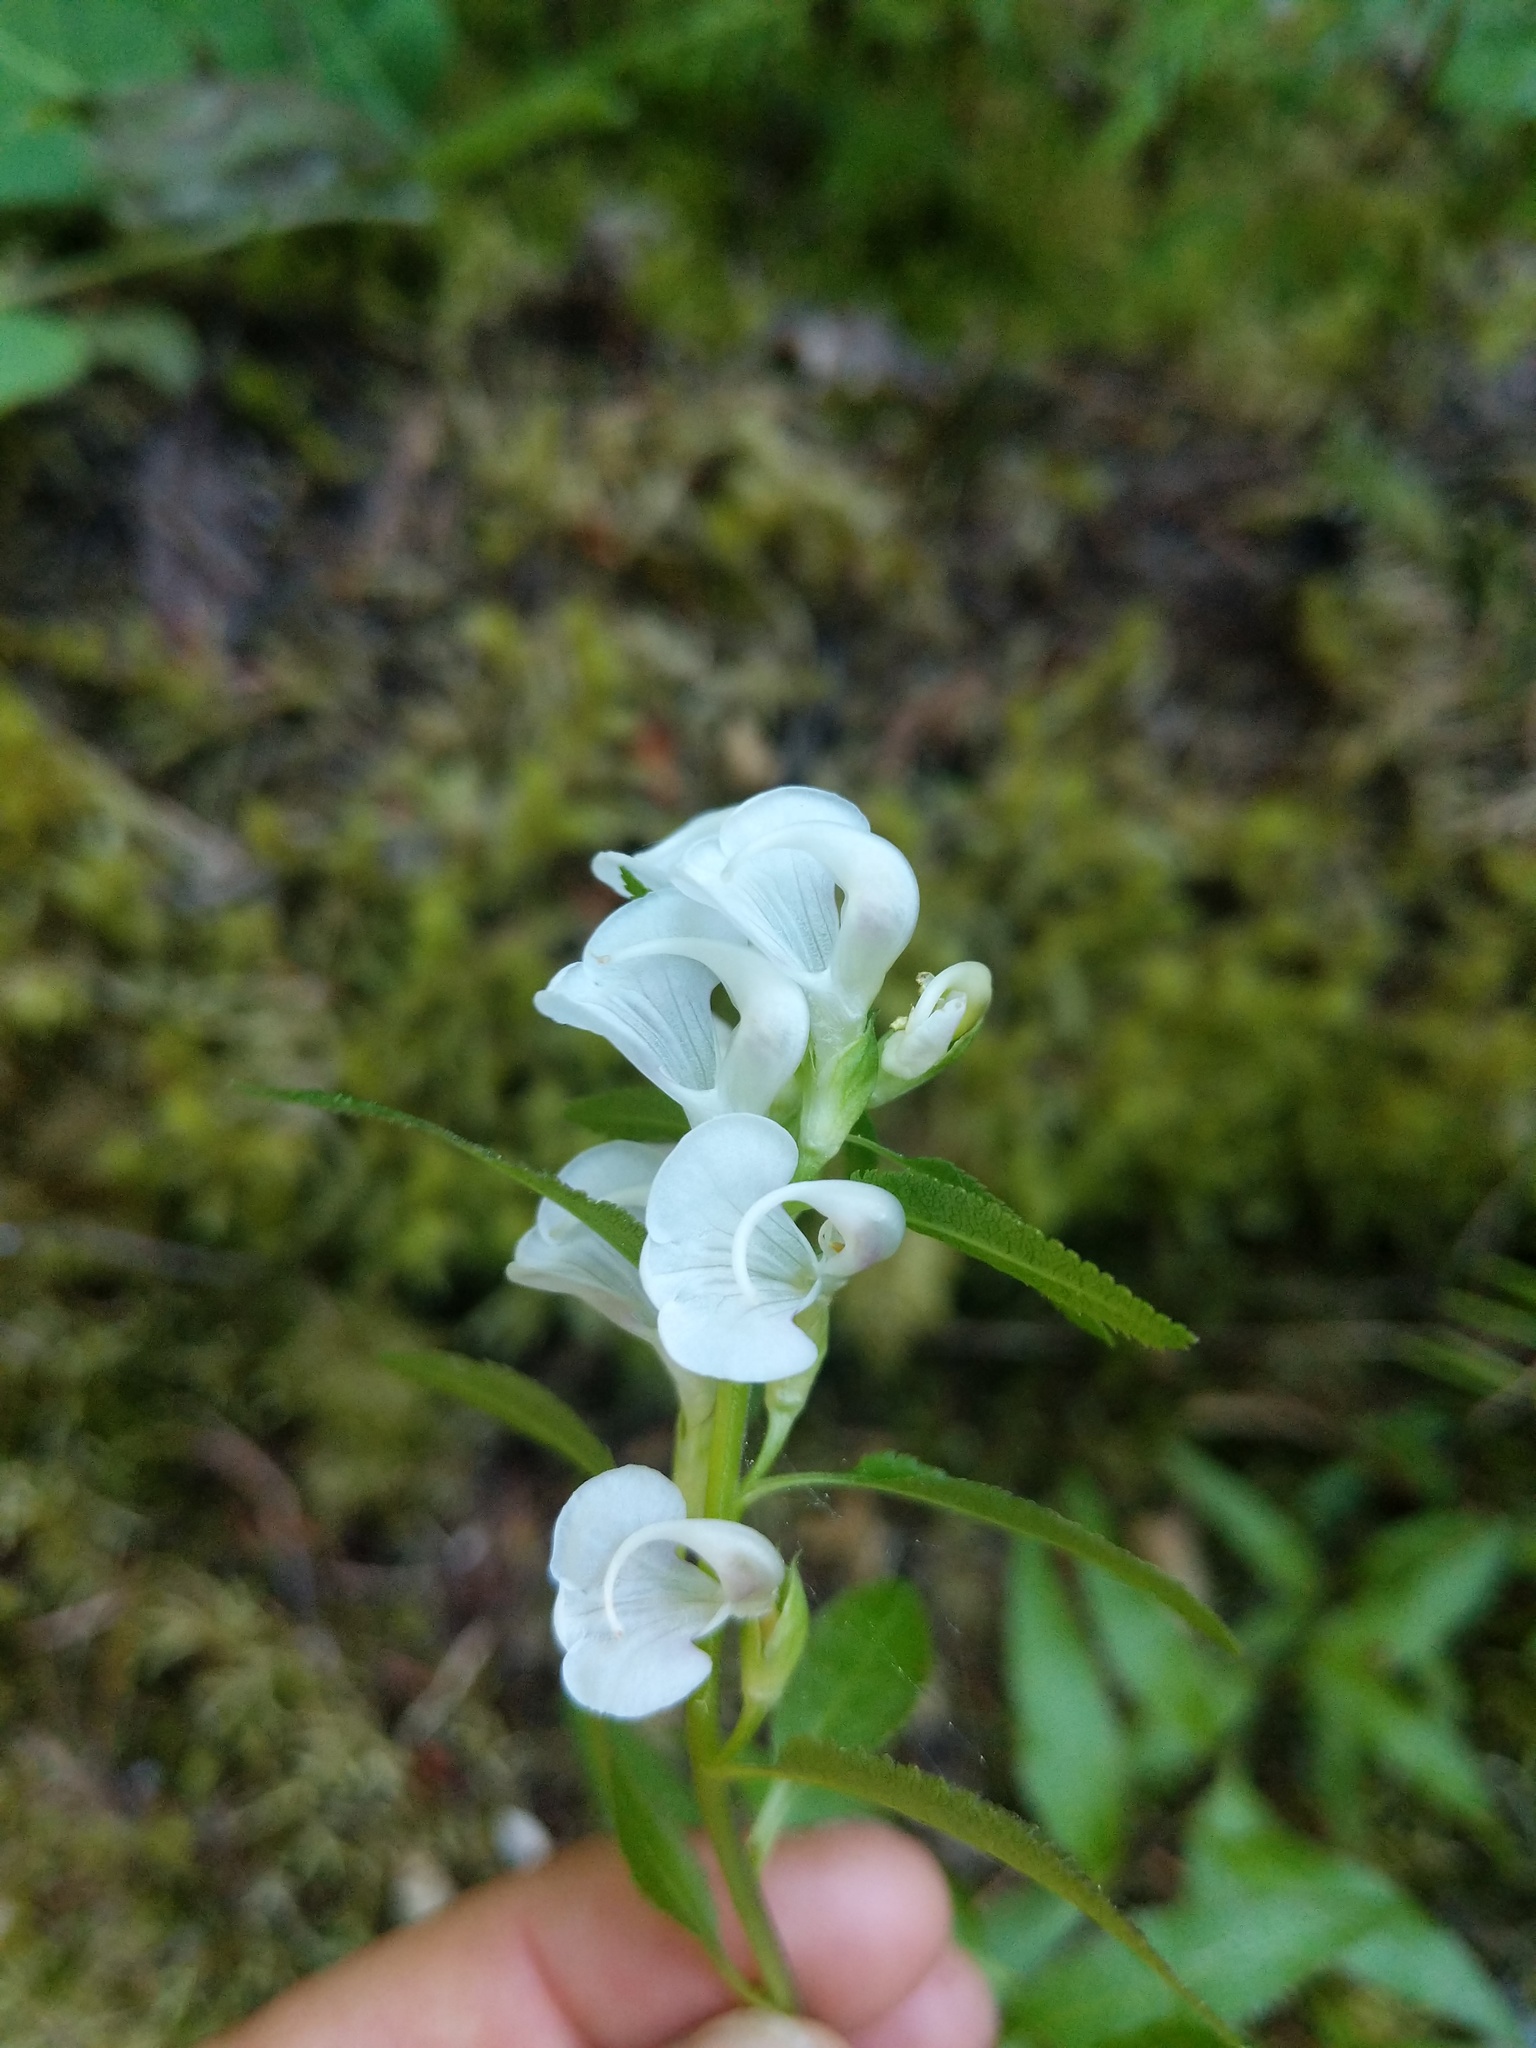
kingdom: Plantae
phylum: Tracheophyta
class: Magnoliopsida
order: Lamiales
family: Orobanchaceae
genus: Pedicularis
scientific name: Pedicularis racemosa
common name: Leafy lousewort
